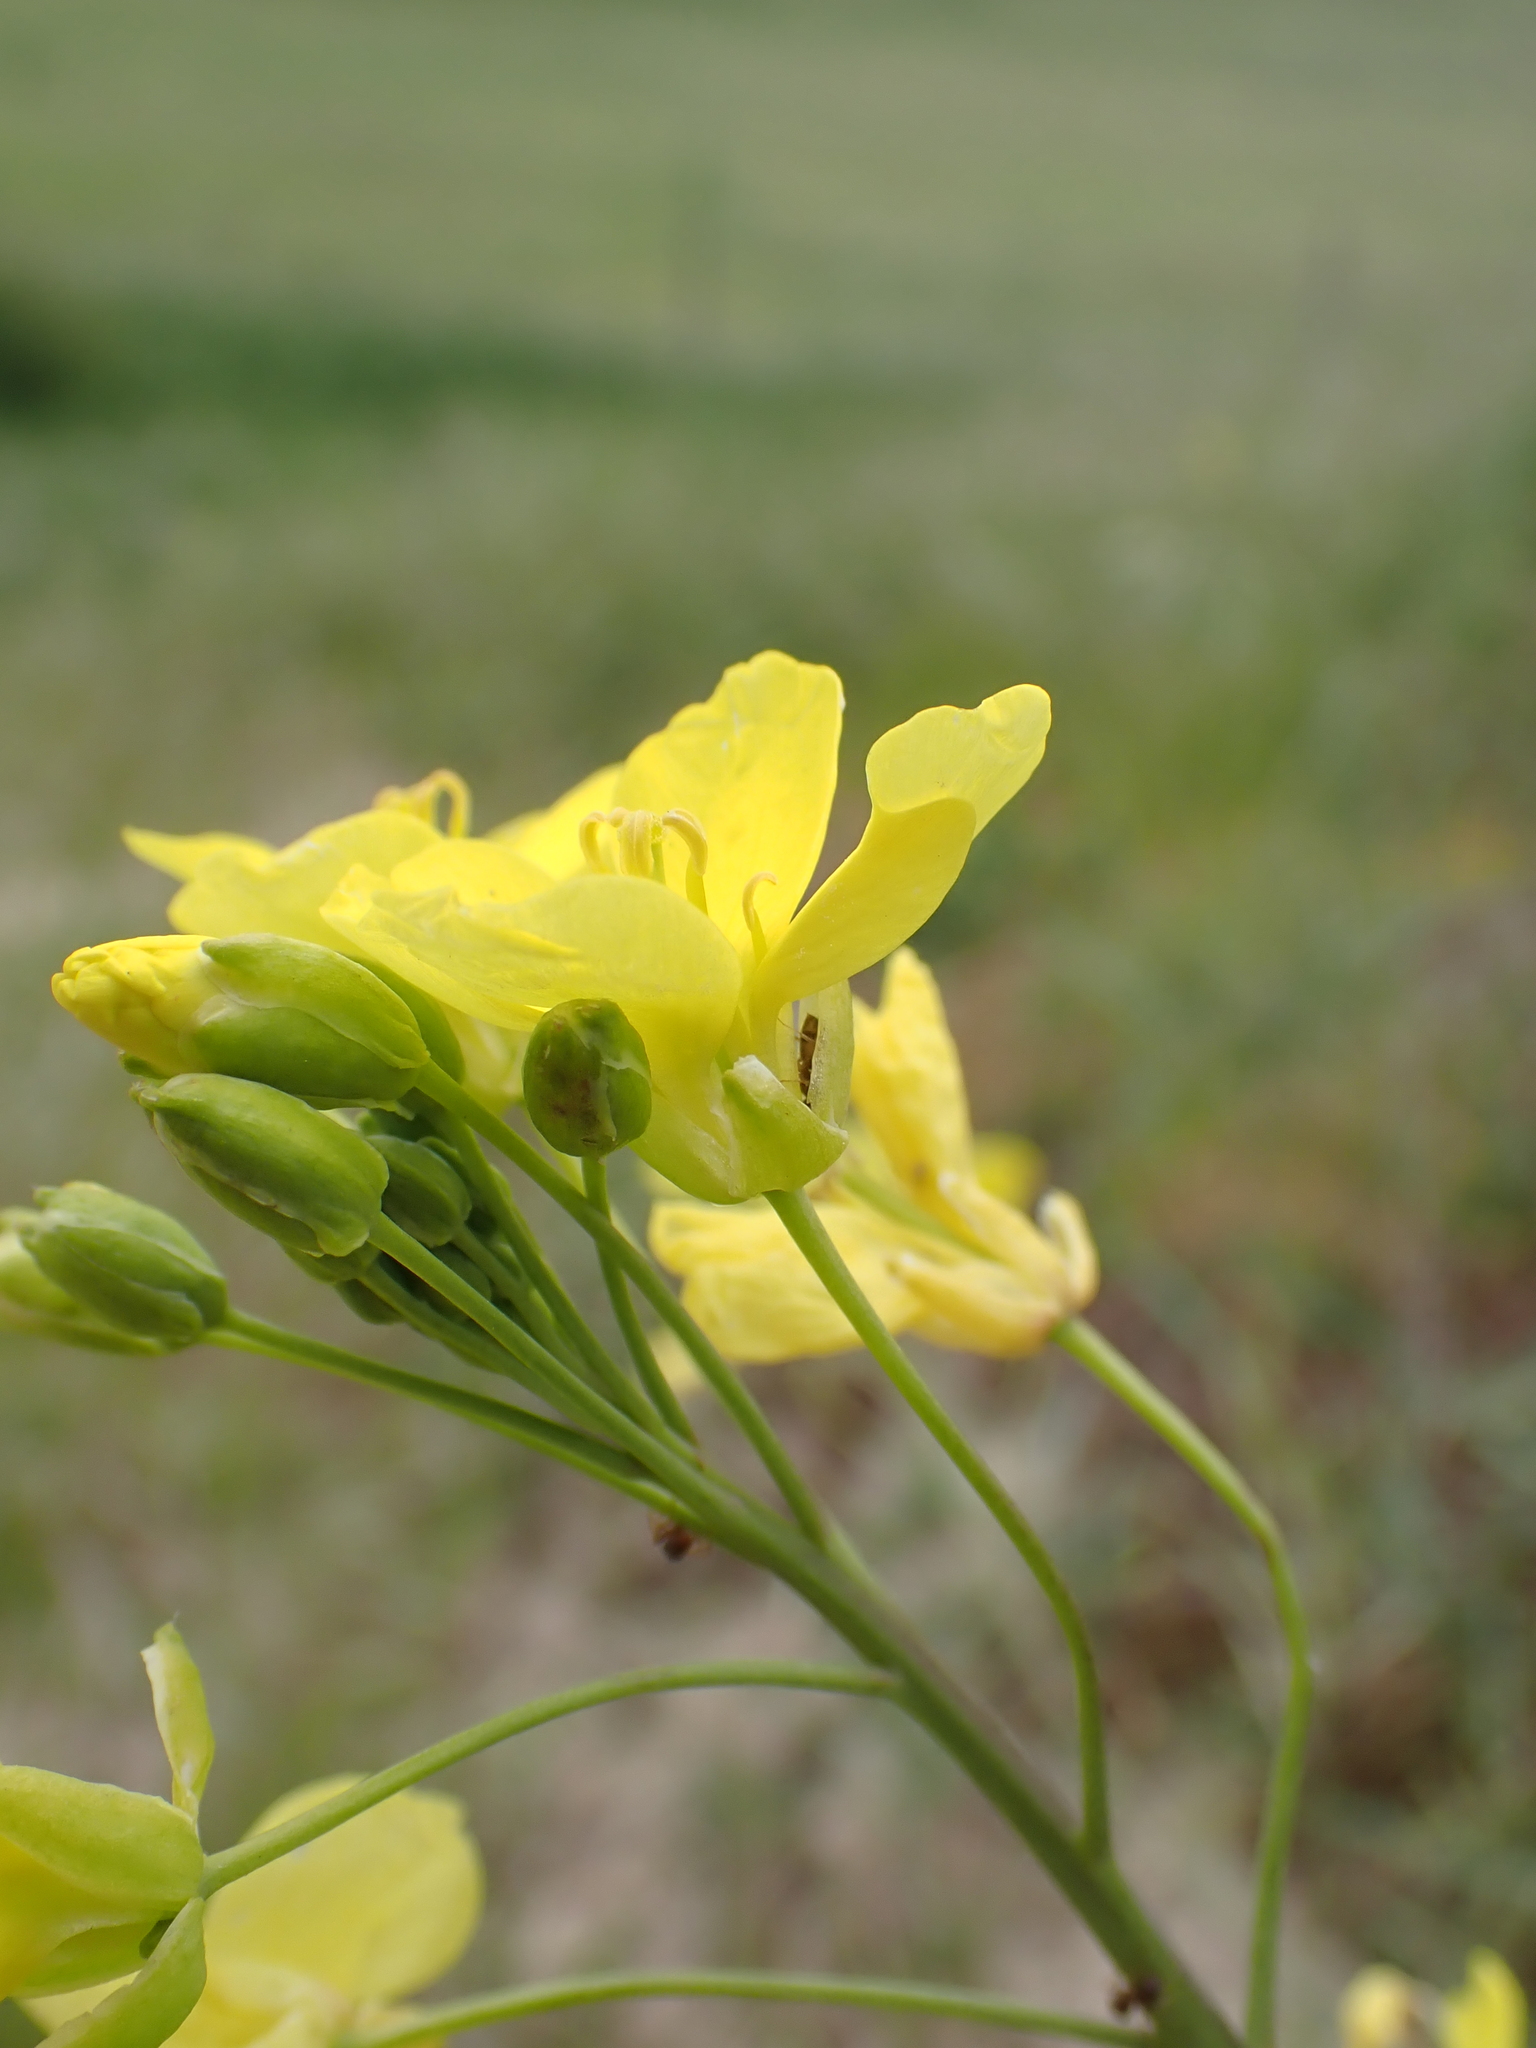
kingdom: Plantae
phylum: Tracheophyta
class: Magnoliopsida
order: Brassicales
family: Brassicaceae
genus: Diplotaxis
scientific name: Diplotaxis tenuifolia
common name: Perennial wall-rocket
